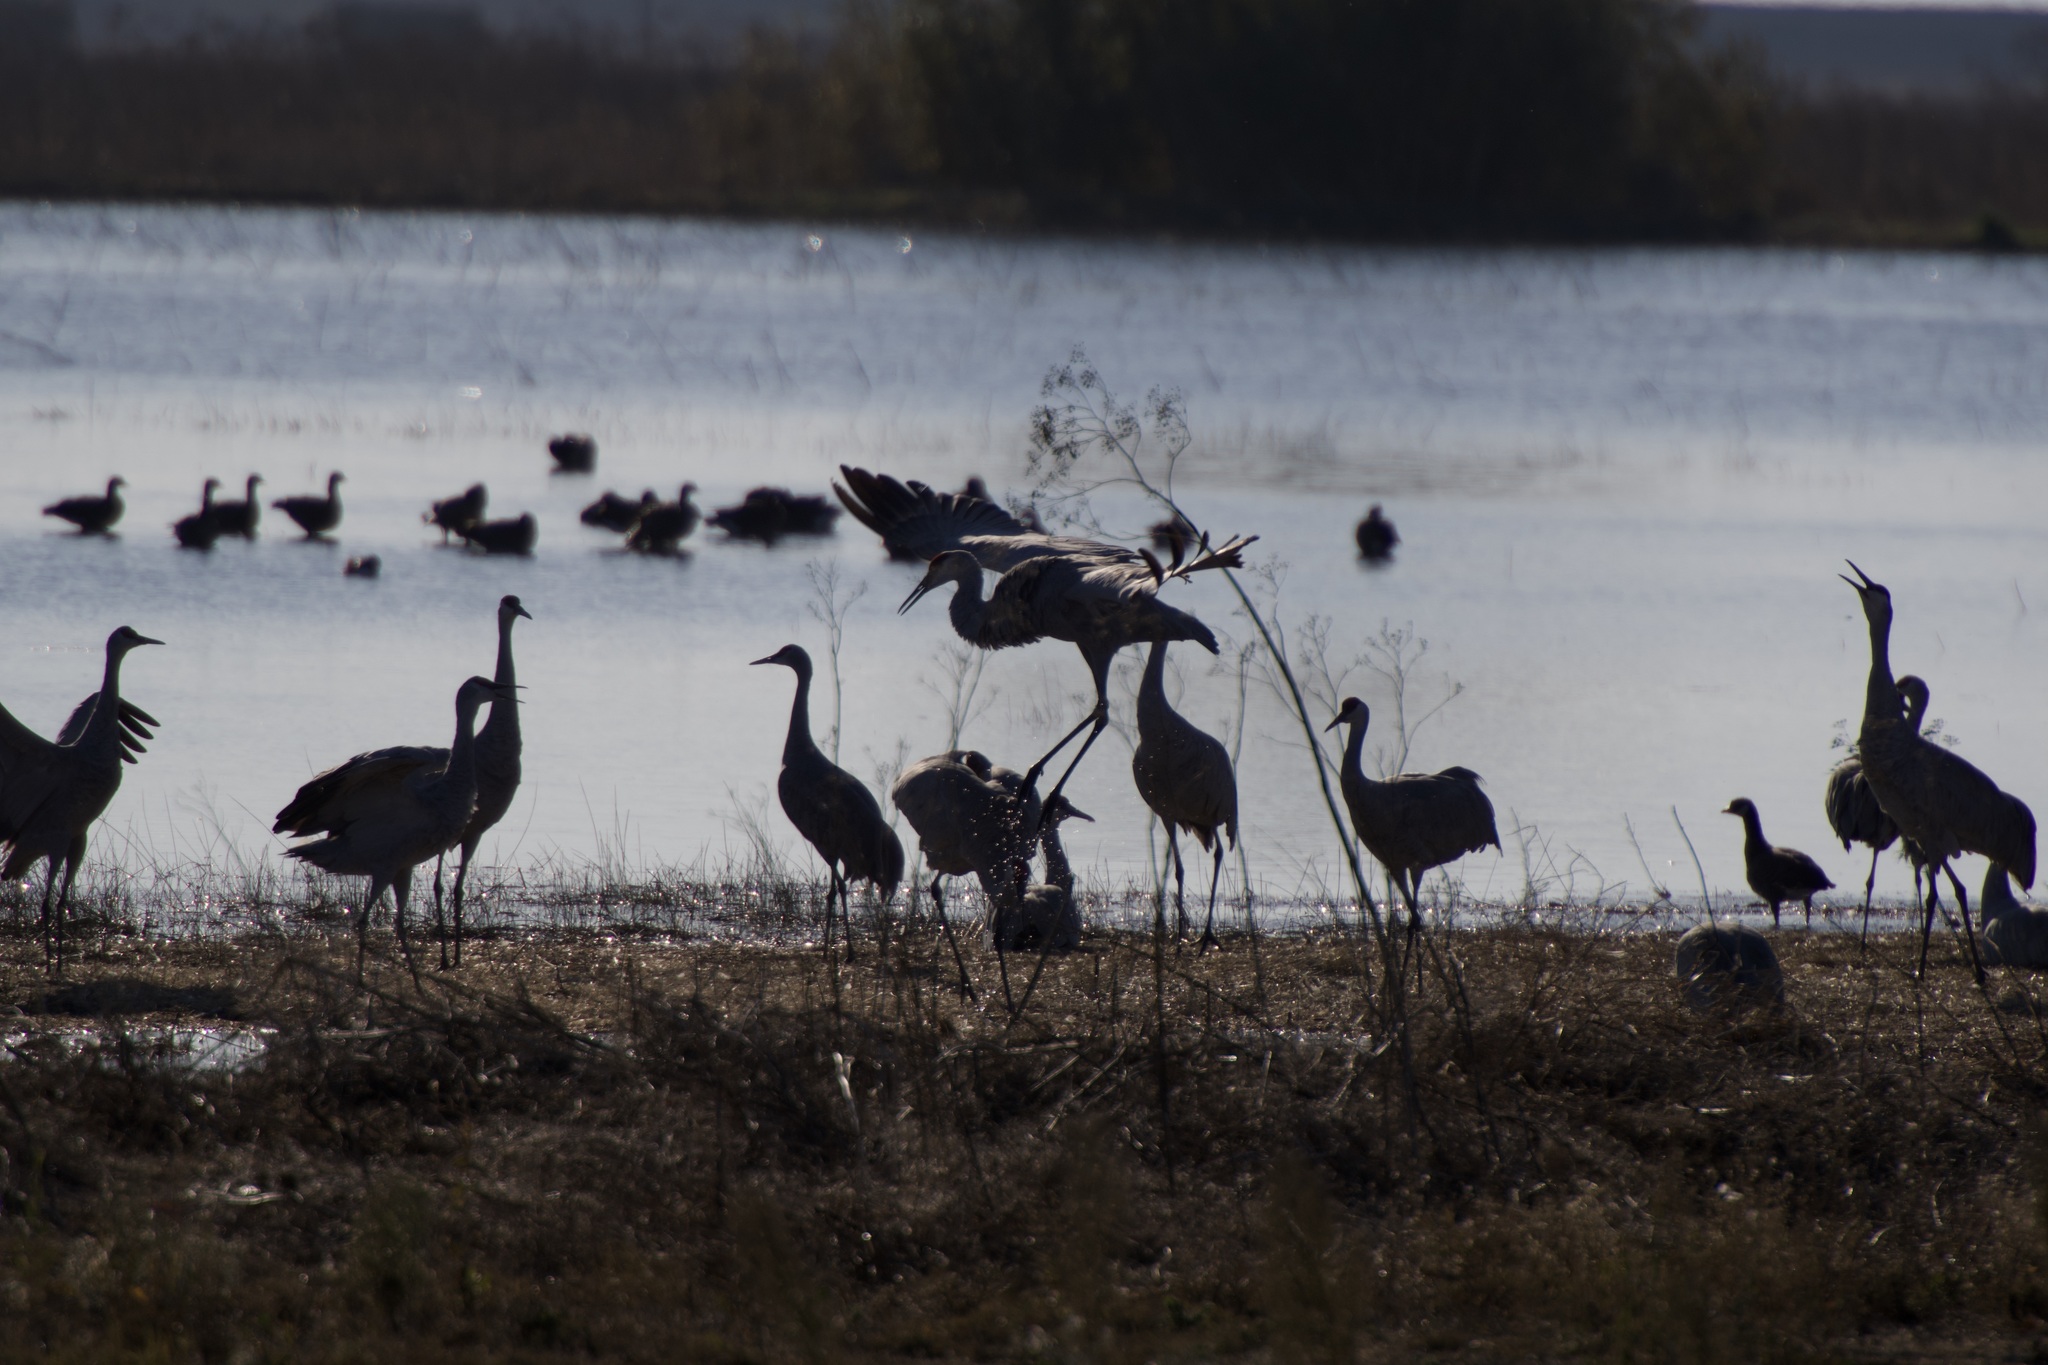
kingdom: Animalia
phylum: Chordata
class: Aves
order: Gruiformes
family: Gruidae
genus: Grus
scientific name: Grus canadensis
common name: Sandhill crane
